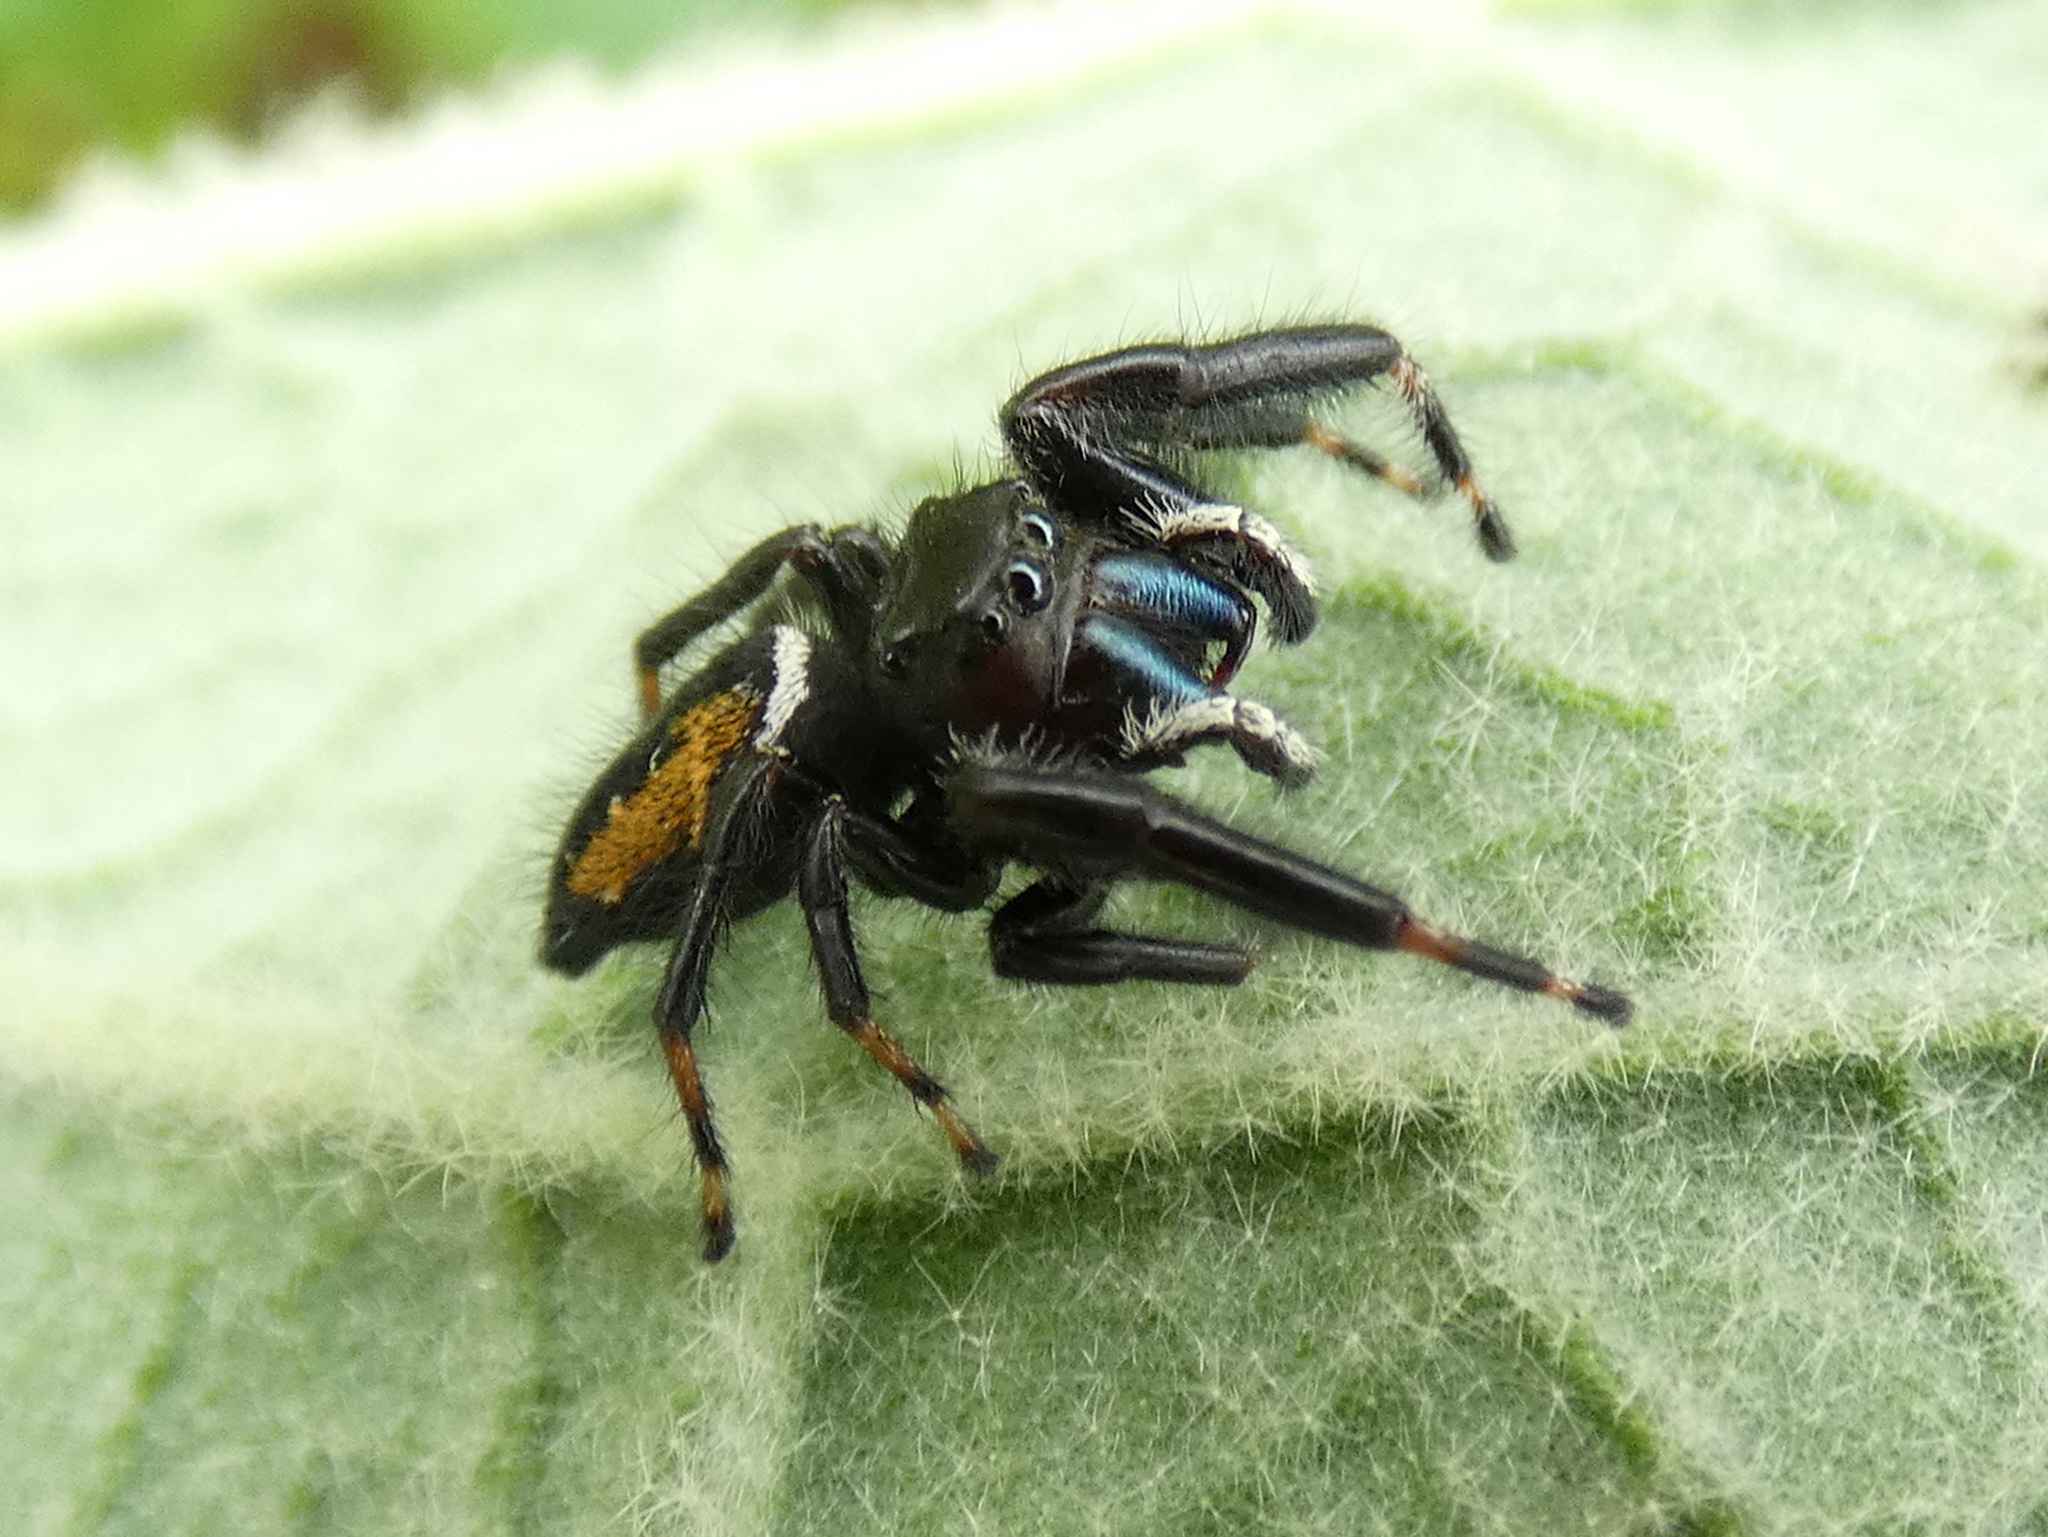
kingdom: Animalia
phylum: Arthropoda
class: Arachnida
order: Araneae
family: Salticidae
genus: Phidippus
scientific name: Phidippus clarus
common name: Brilliant jumping spider
